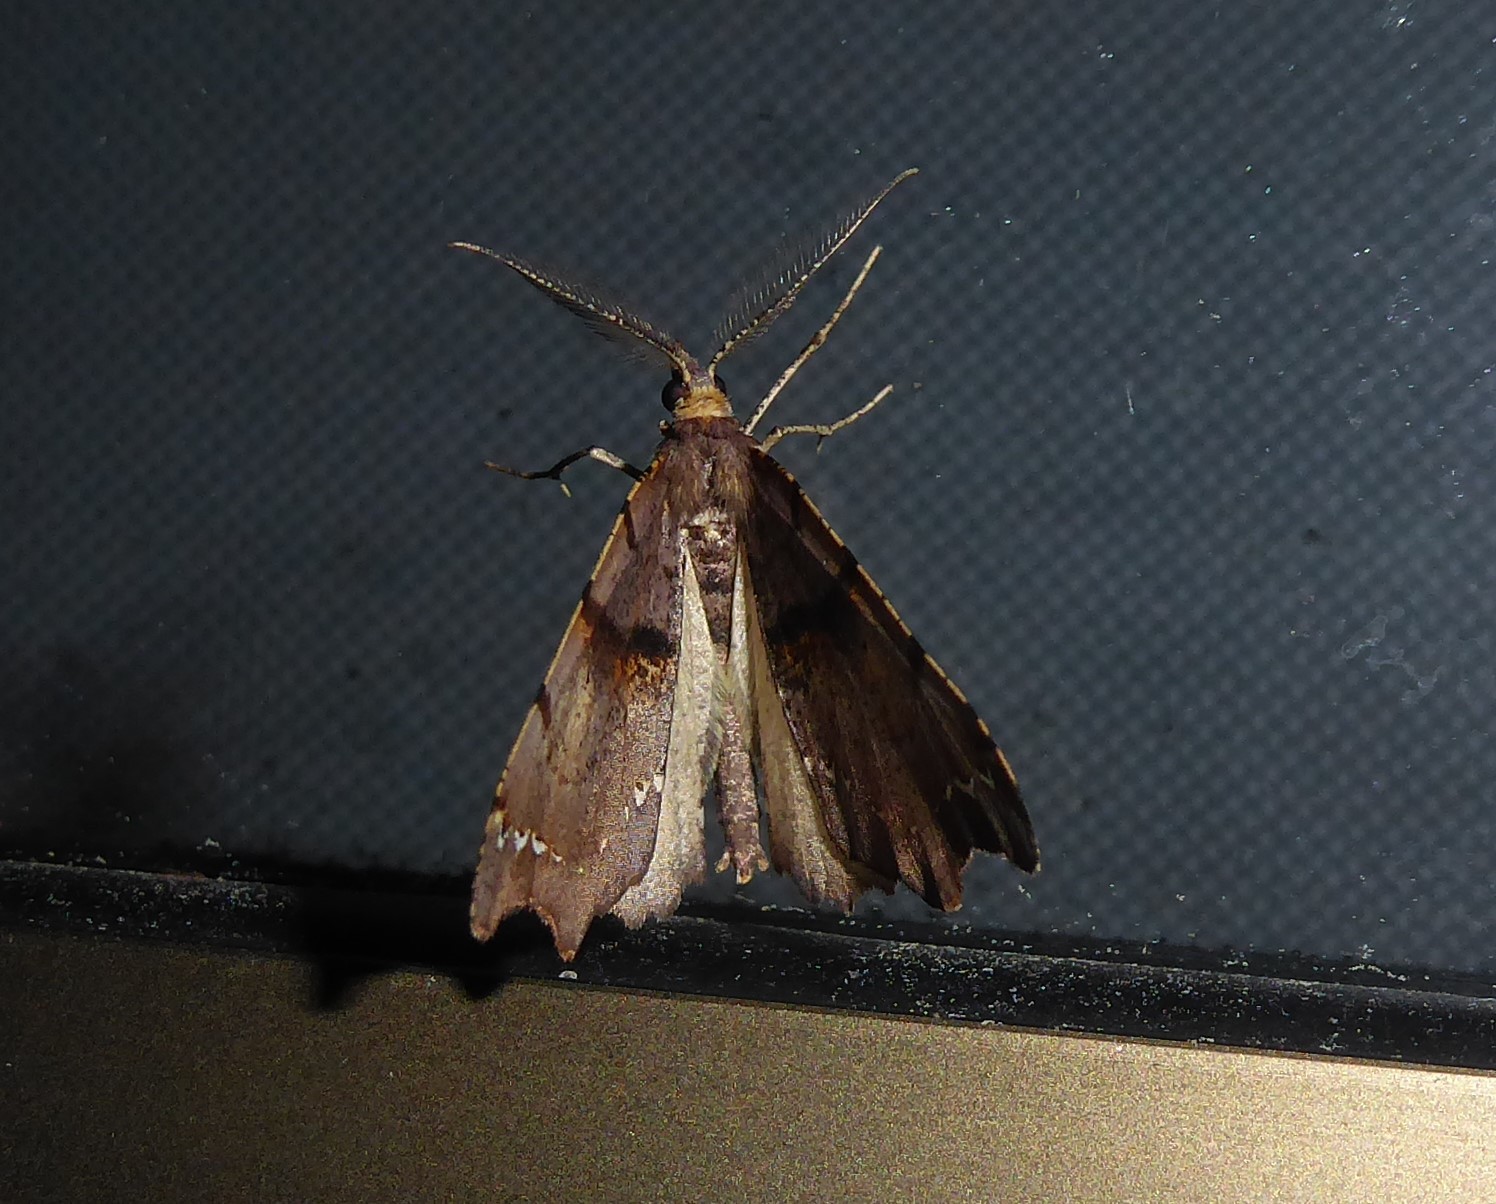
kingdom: Animalia
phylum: Arthropoda
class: Insecta
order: Lepidoptera
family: Geometridae
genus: Chalastra
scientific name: Chalastra pellurgata
